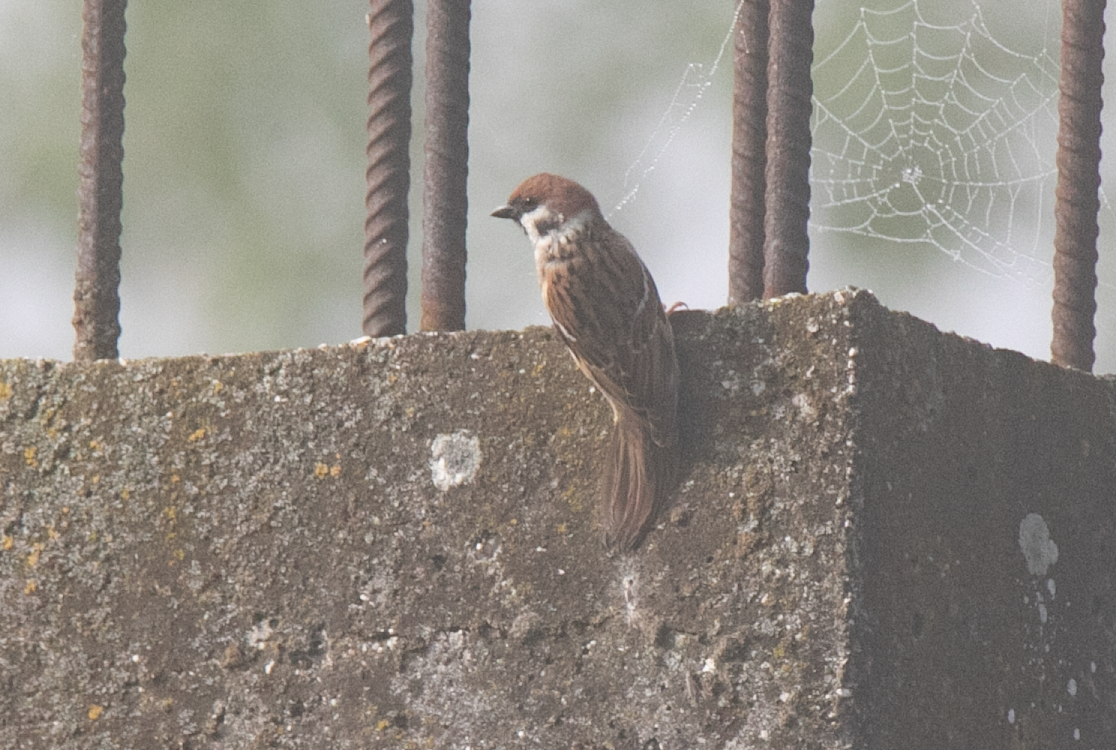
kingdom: Animalia
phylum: Chordata
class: Aves
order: Passeriformes
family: Passeridae
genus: Passer
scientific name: Passer montanus
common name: Eurasian tree sparrow
